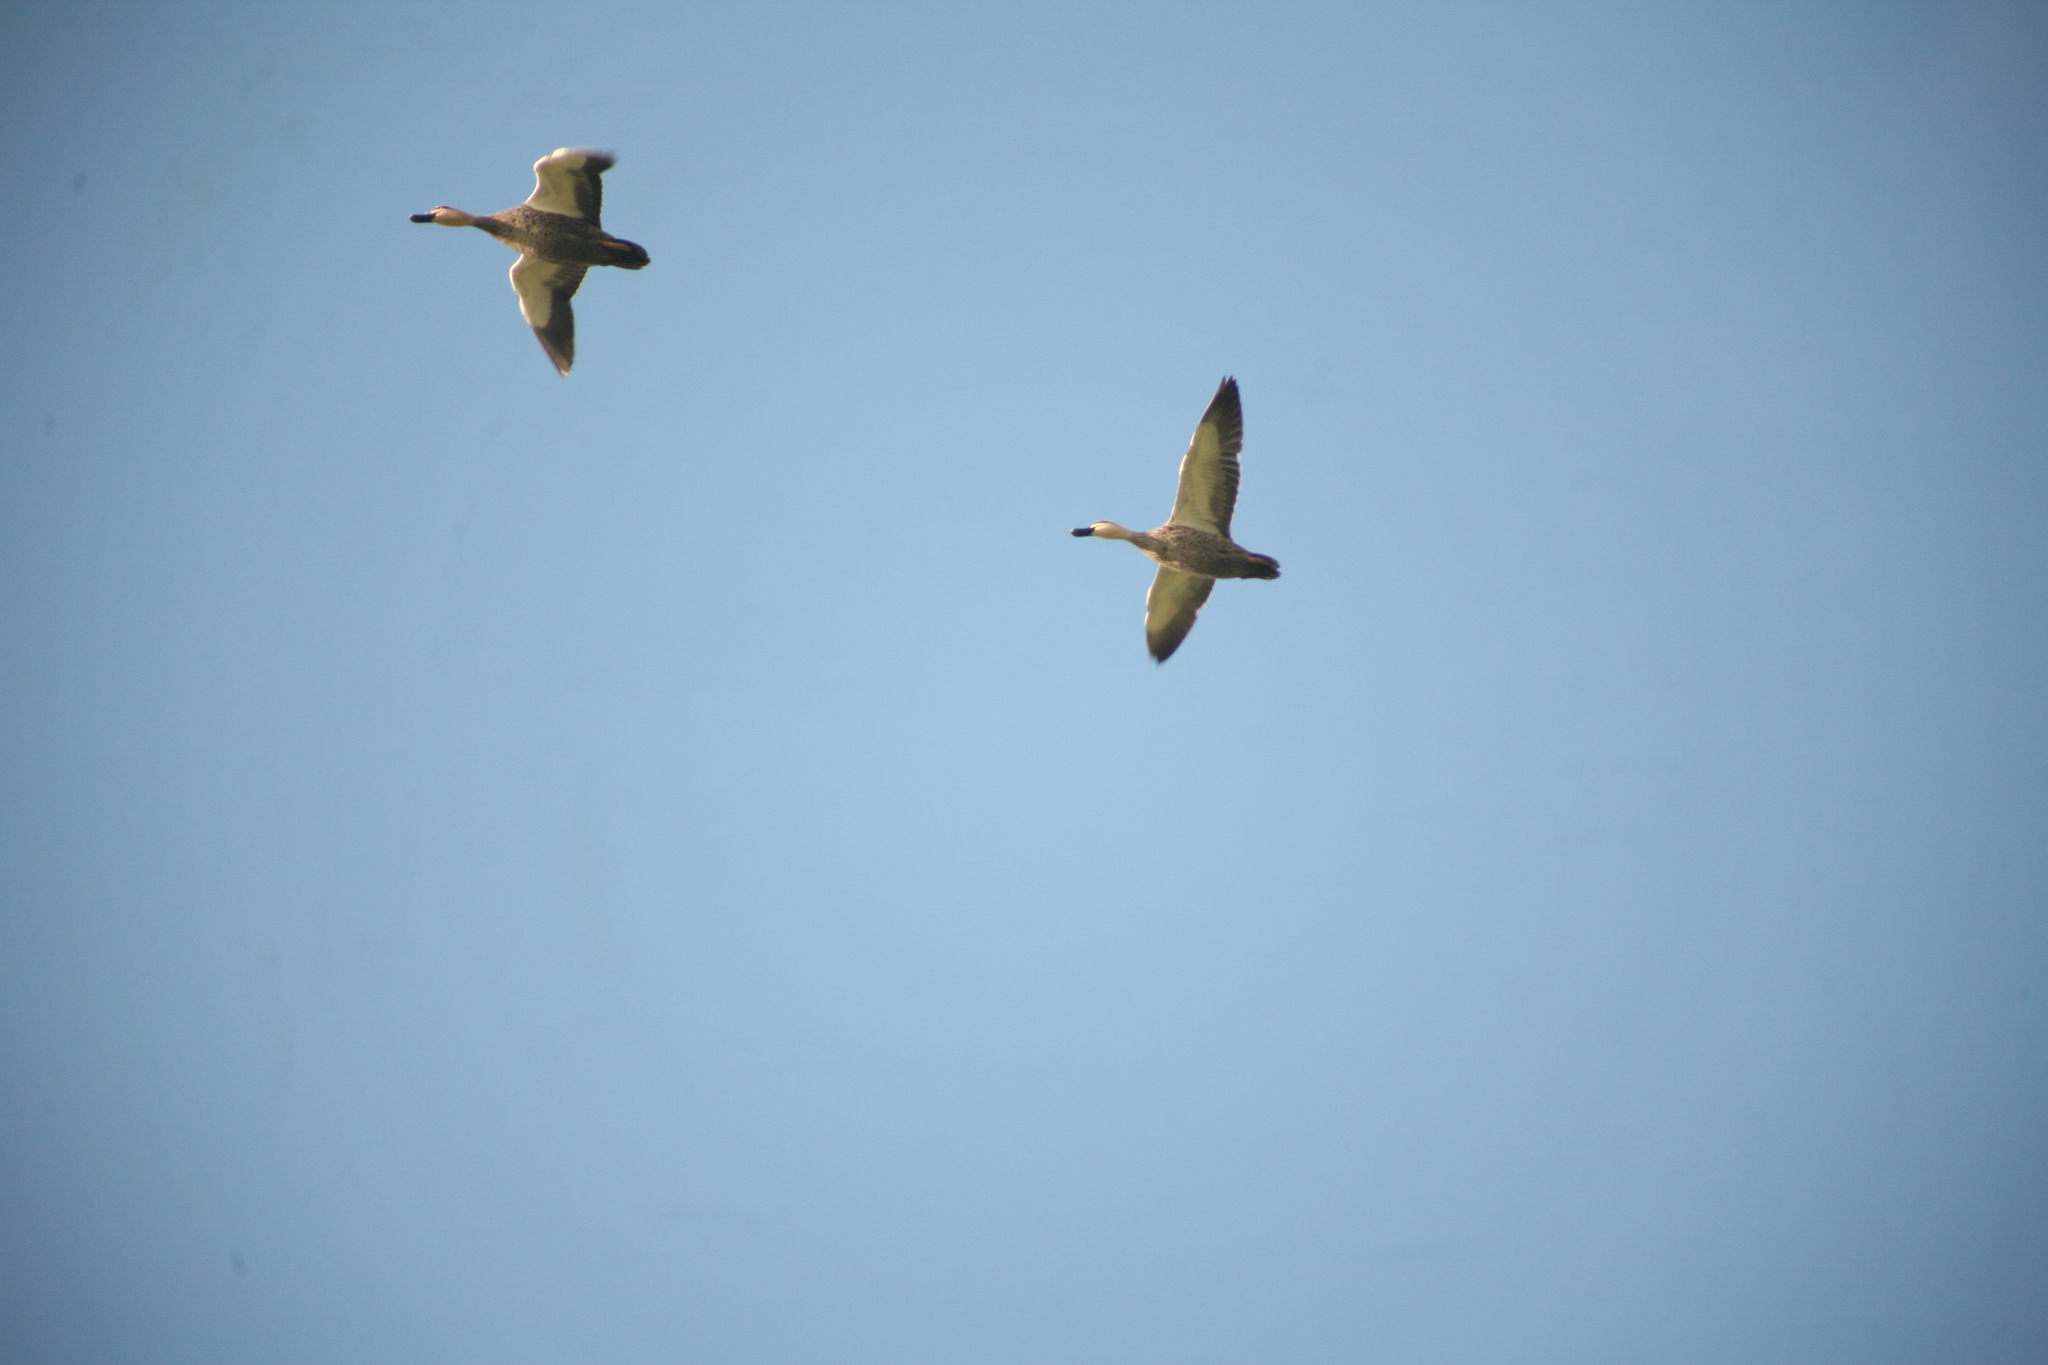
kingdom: Animalia
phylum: Chordata
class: Aves
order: Anseriformes
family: Anatidae
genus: Anas
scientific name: Anas superciliosa
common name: Pacific black duck
